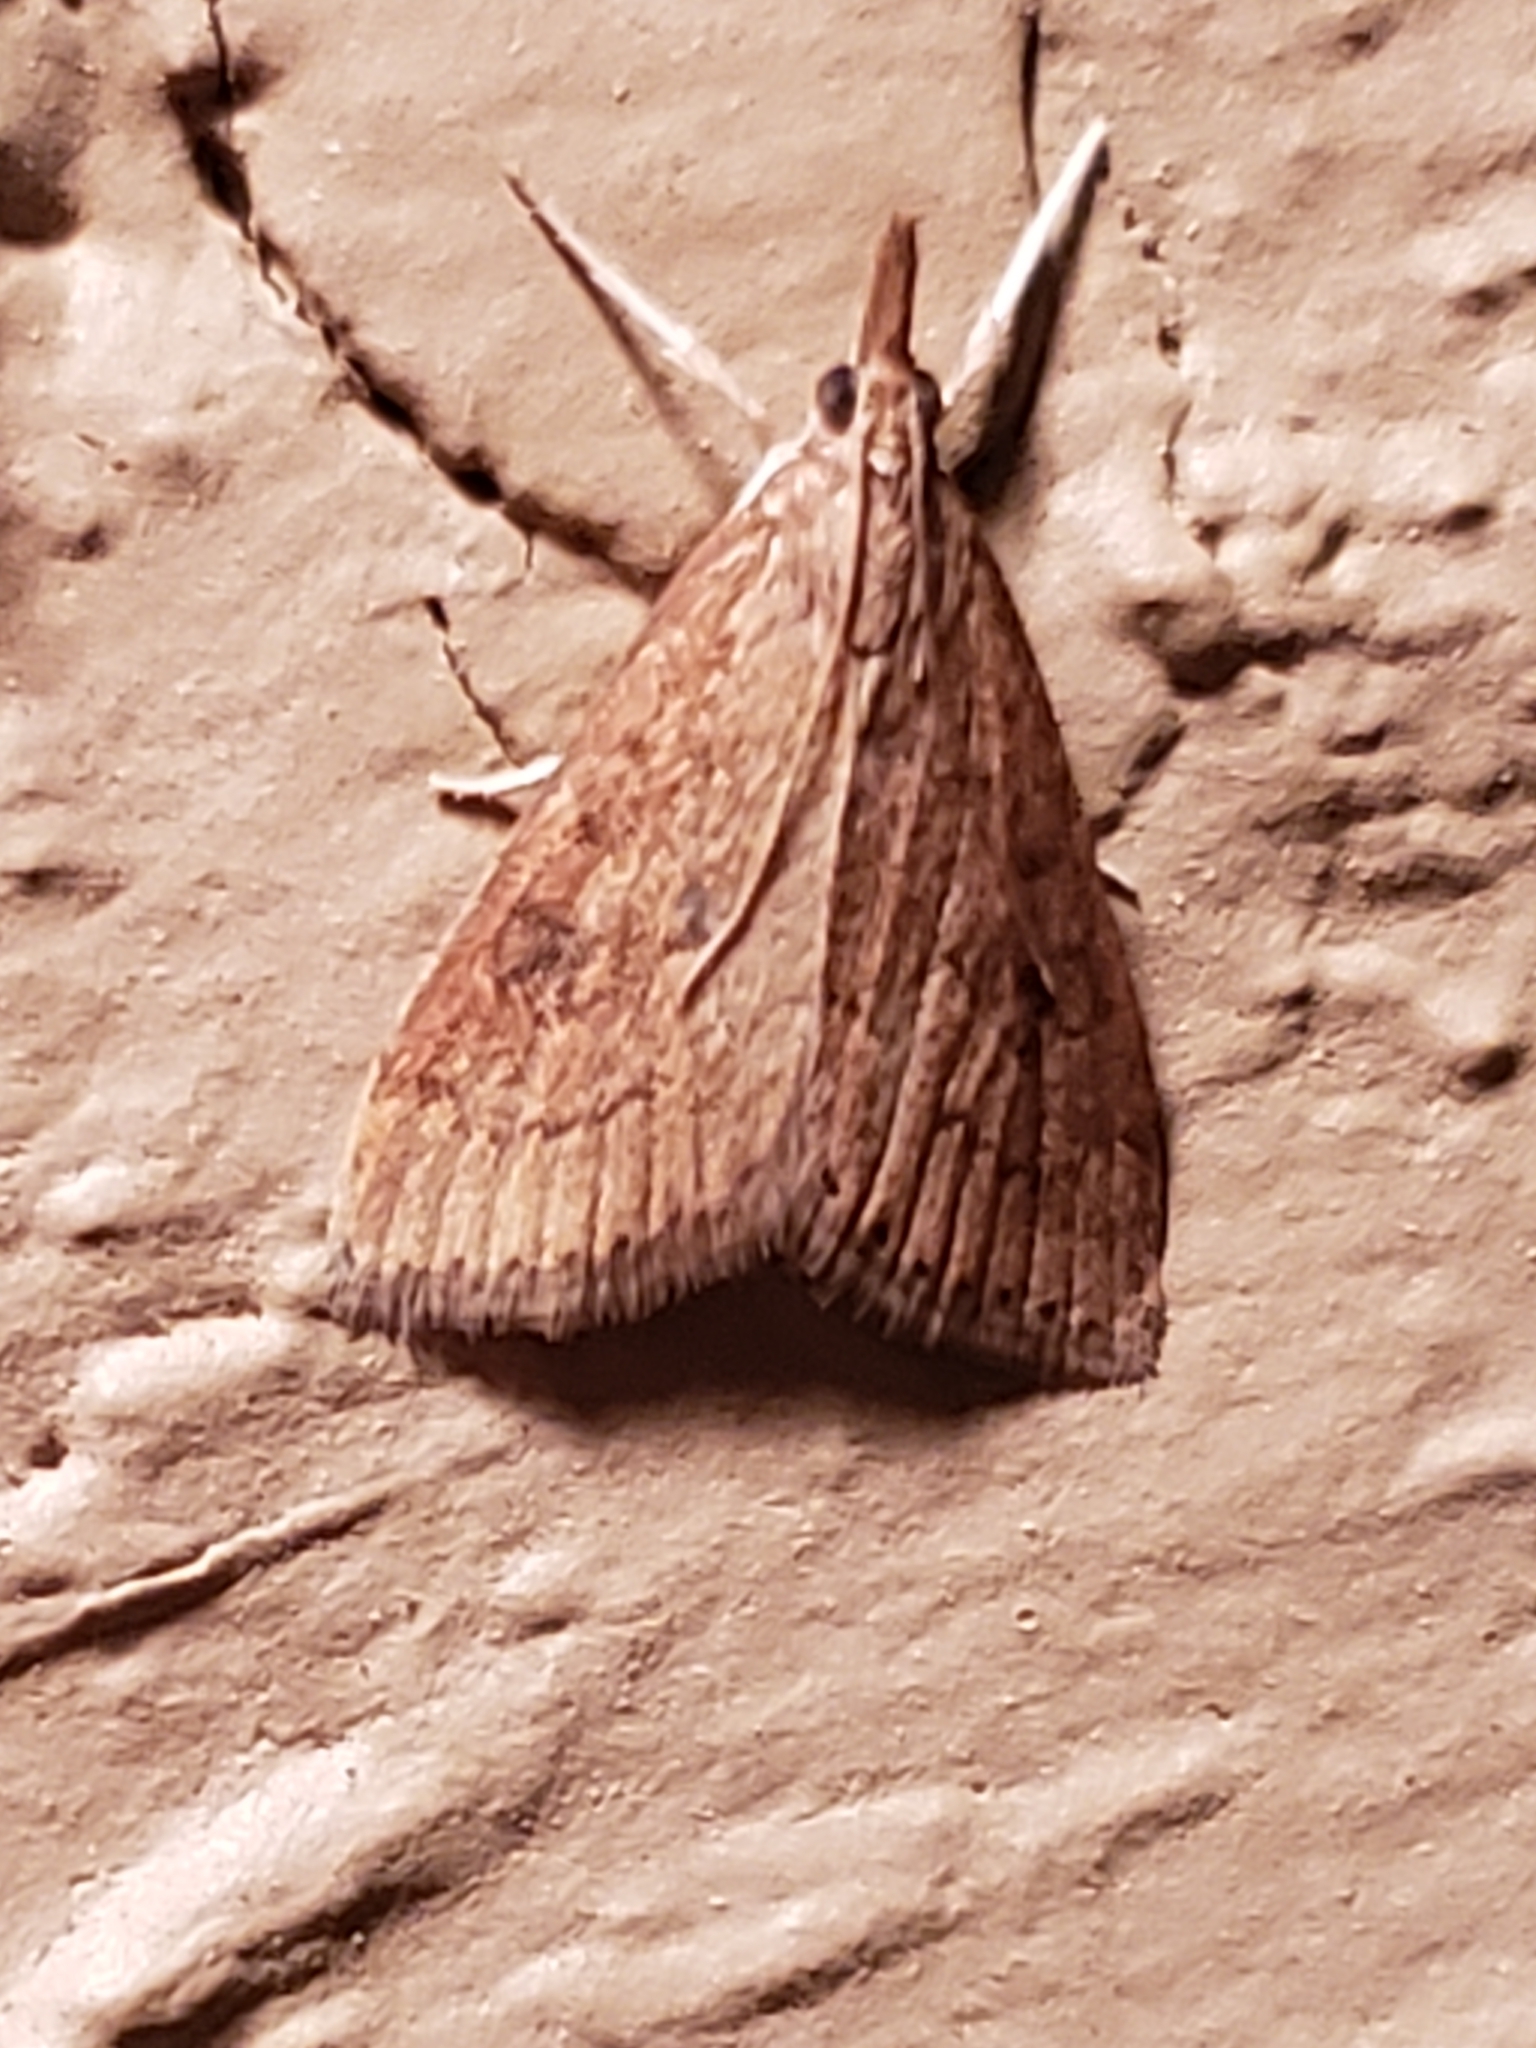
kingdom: Animalia
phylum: Arthropoda
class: Insecta
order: Lepidoptera
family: Crambidae
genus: Udea
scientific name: Udea rubigalis
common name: Celery leaftier moth
